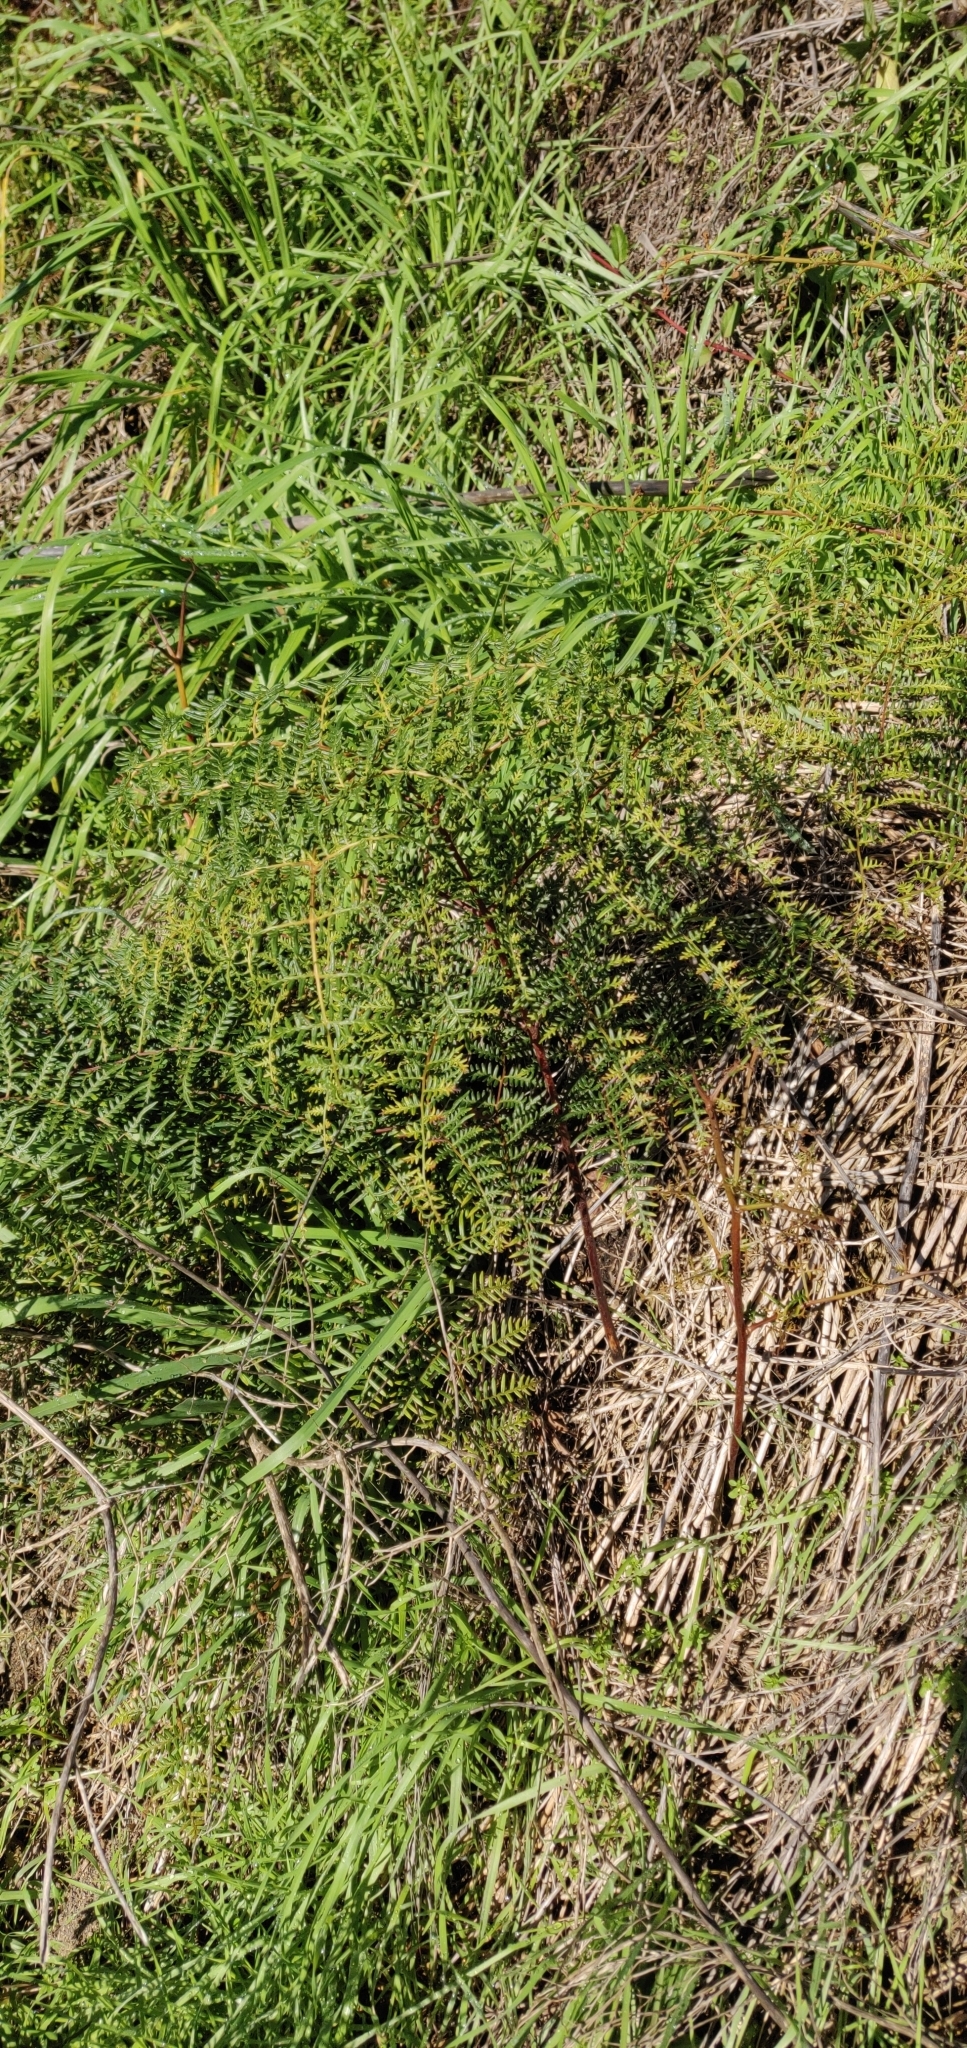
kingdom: Plantae
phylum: Tracheophyta
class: Polypodiopsida
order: Polypodiales
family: Dennstaedtiaceae
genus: Pteridium
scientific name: Pteridium esculentum
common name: Bracken fern
